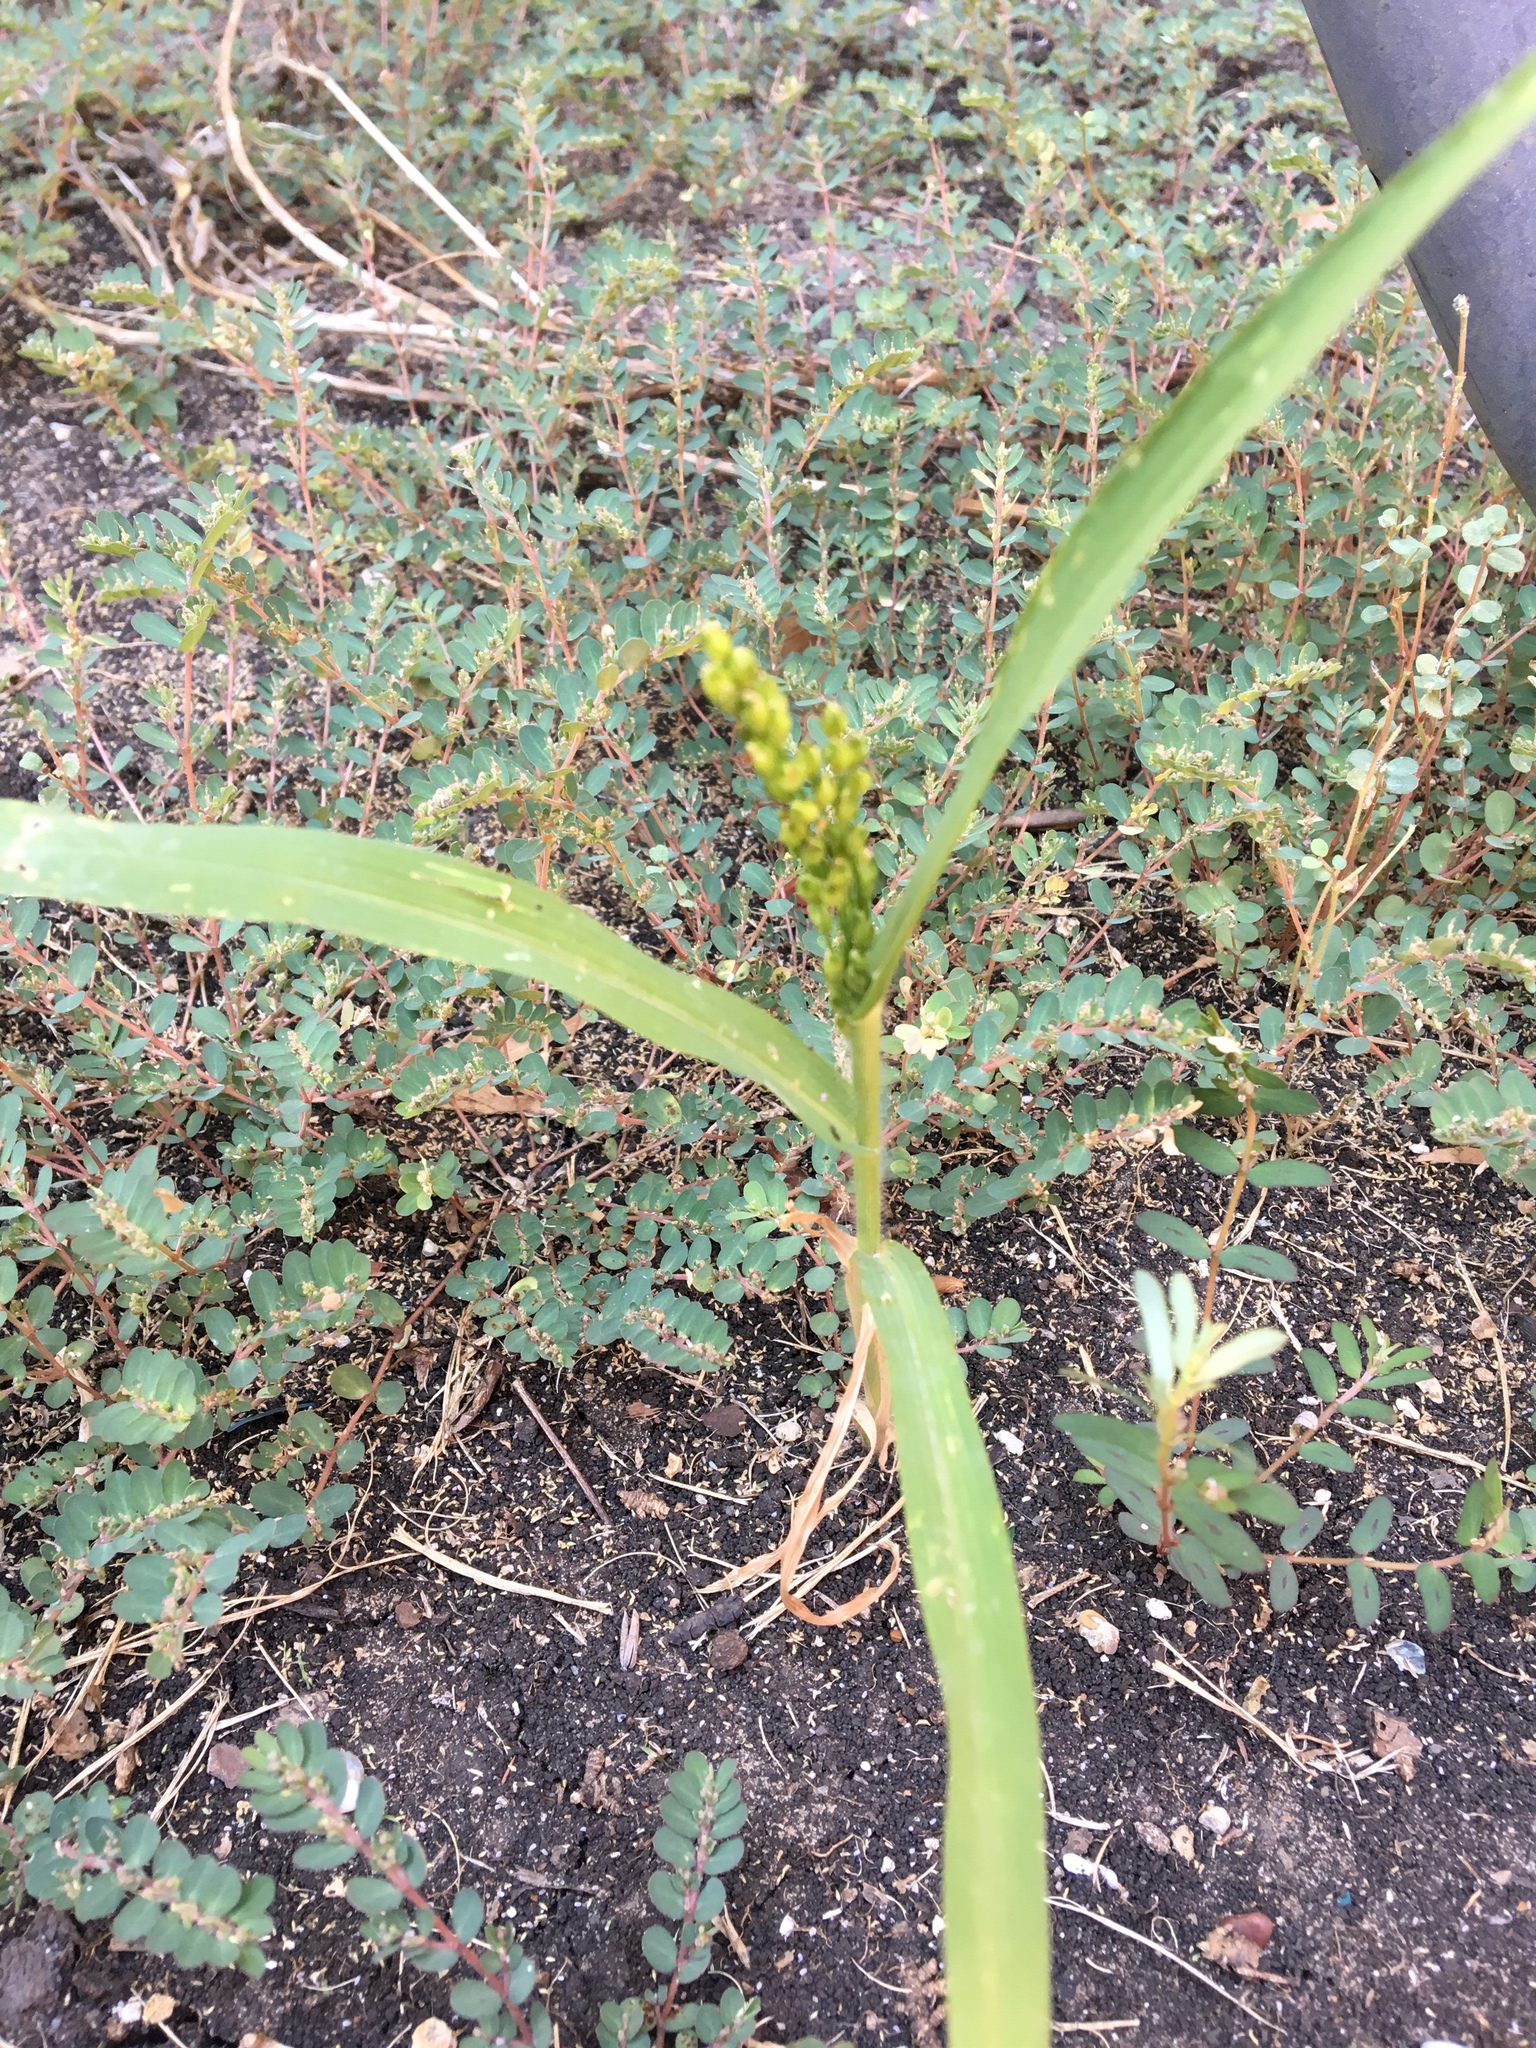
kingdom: Plantae
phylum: Tracheophyta
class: Liliopsida
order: Poales
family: Poaceae
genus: Urochloa
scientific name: Urochloa texana
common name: Texas millet
